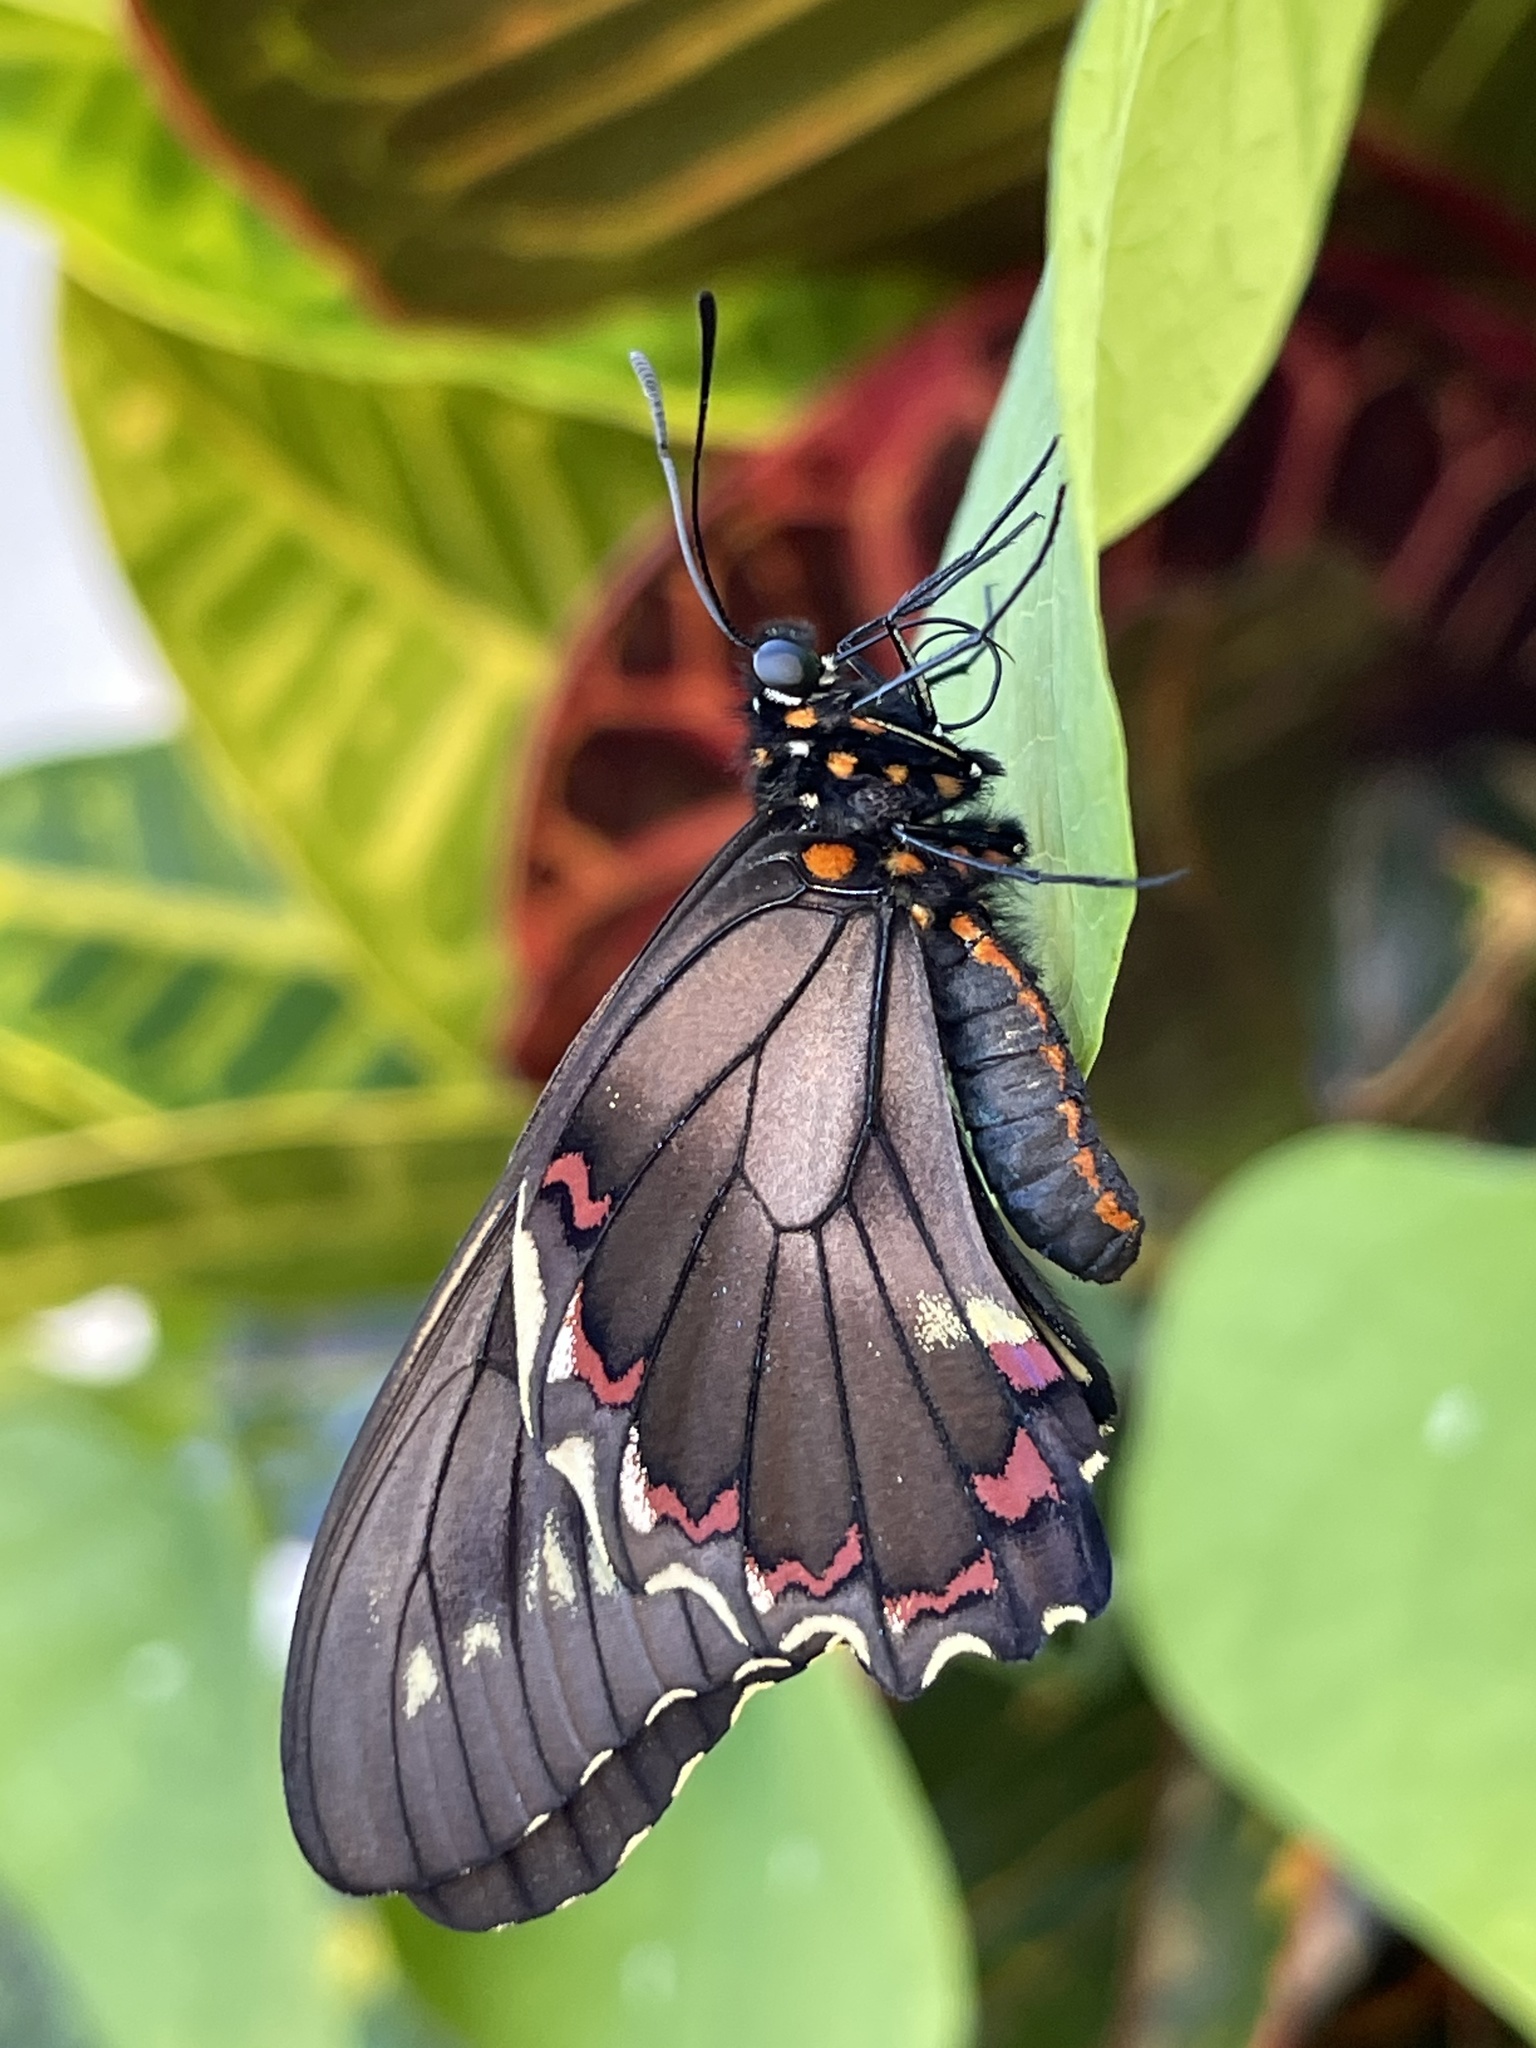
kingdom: Animalia
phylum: Arthropoda
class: Insecta
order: Lepidoptera
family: Papilionidae
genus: Battus
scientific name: Battus polydamas
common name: Polydamas swallowtail
